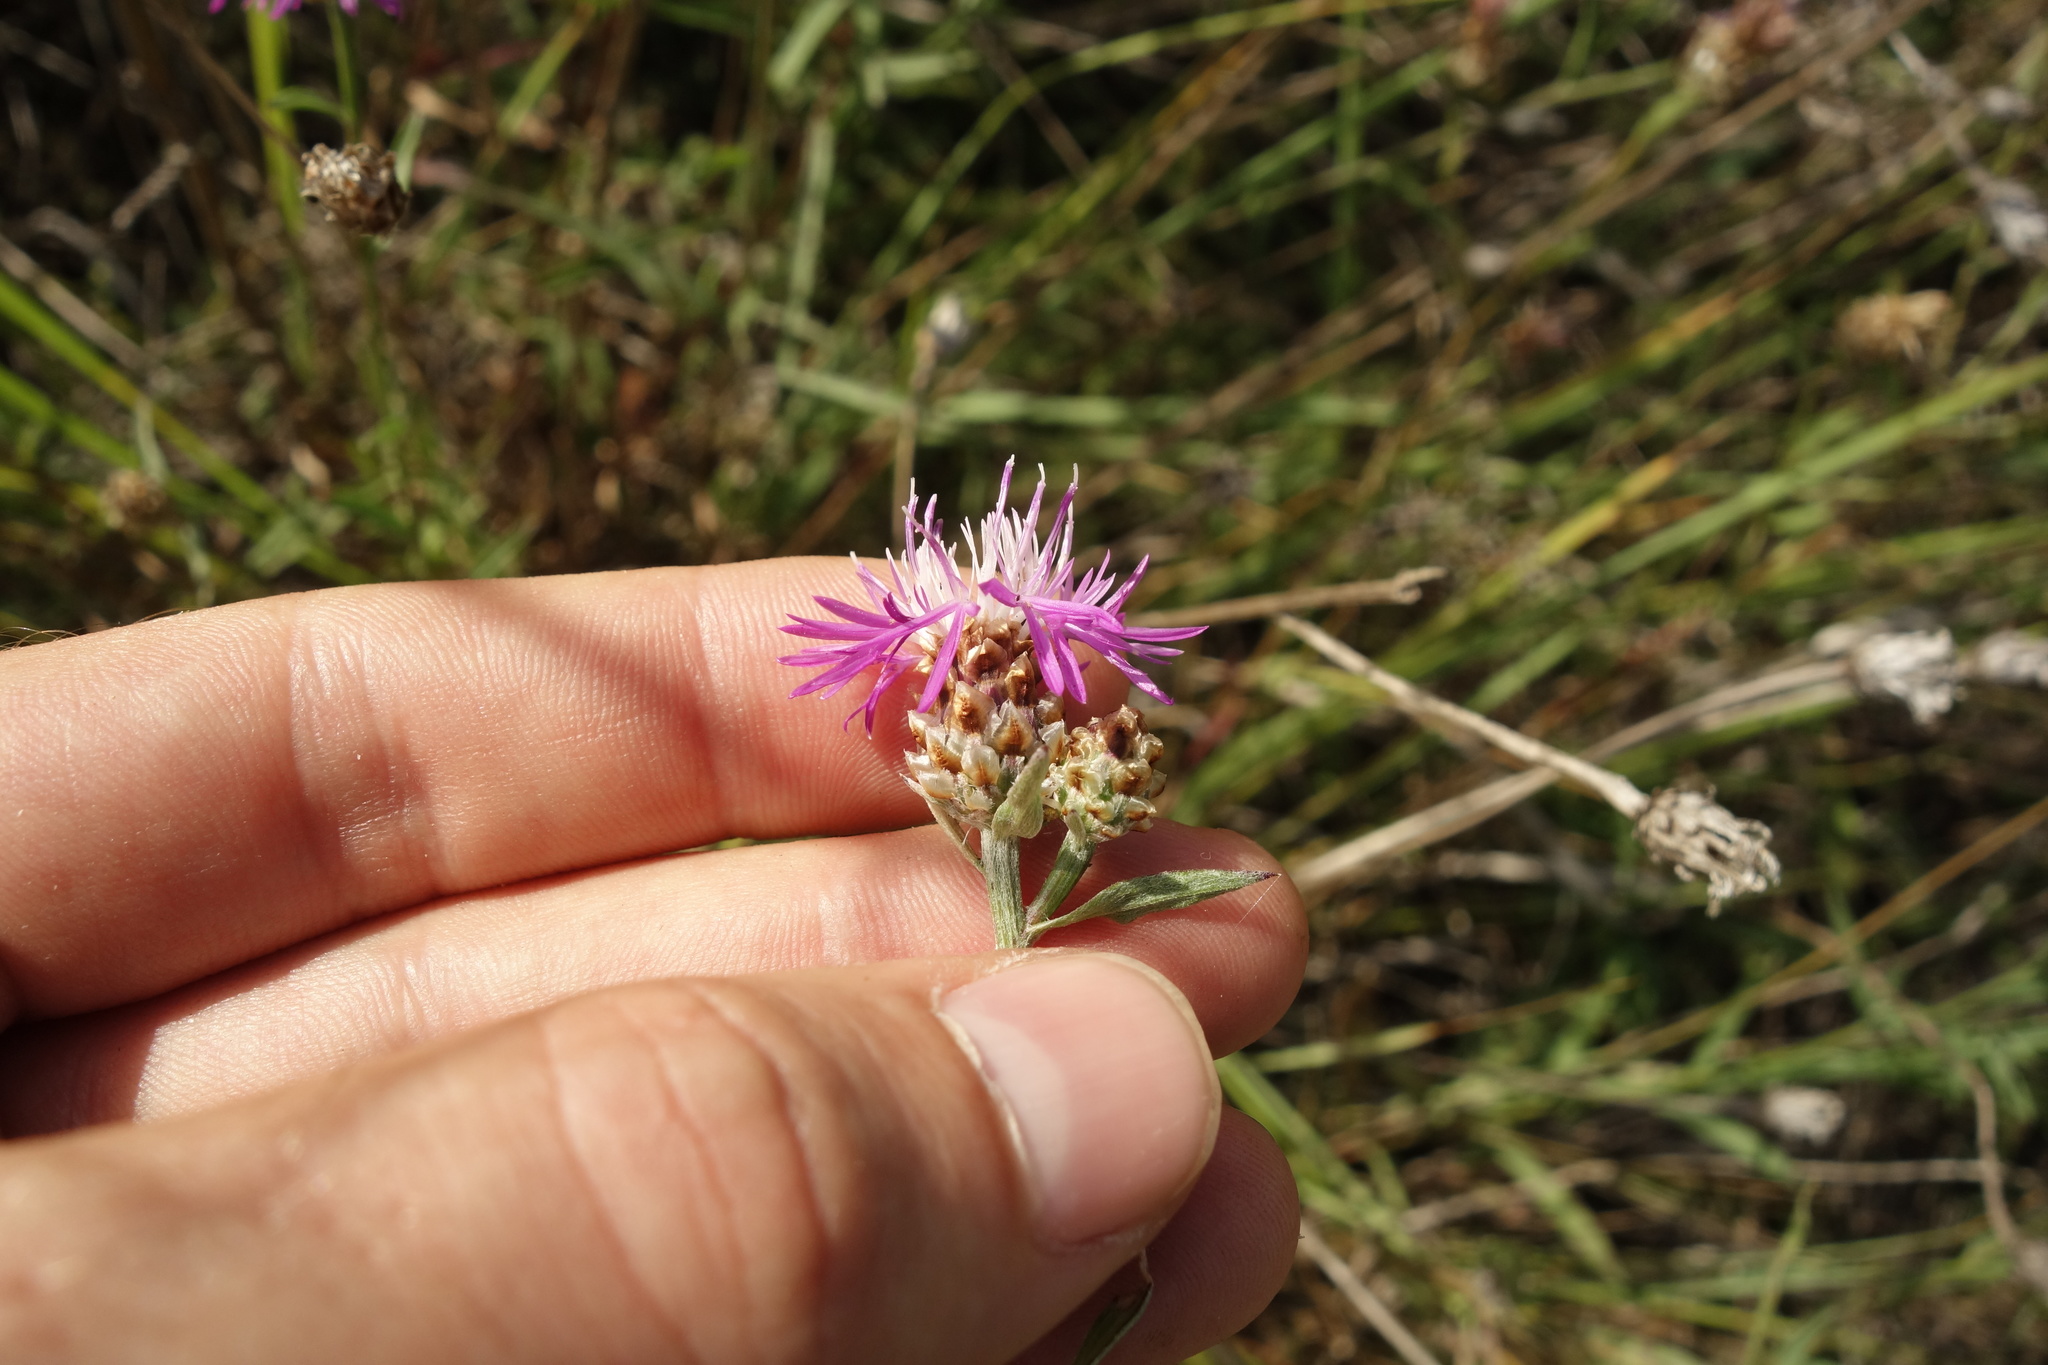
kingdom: Plantae
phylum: Tracheophyta
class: Magnoliopsida
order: Asterales
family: Asteraceae
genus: Centaurea
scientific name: Centaurea jacea
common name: Brown knapweed
